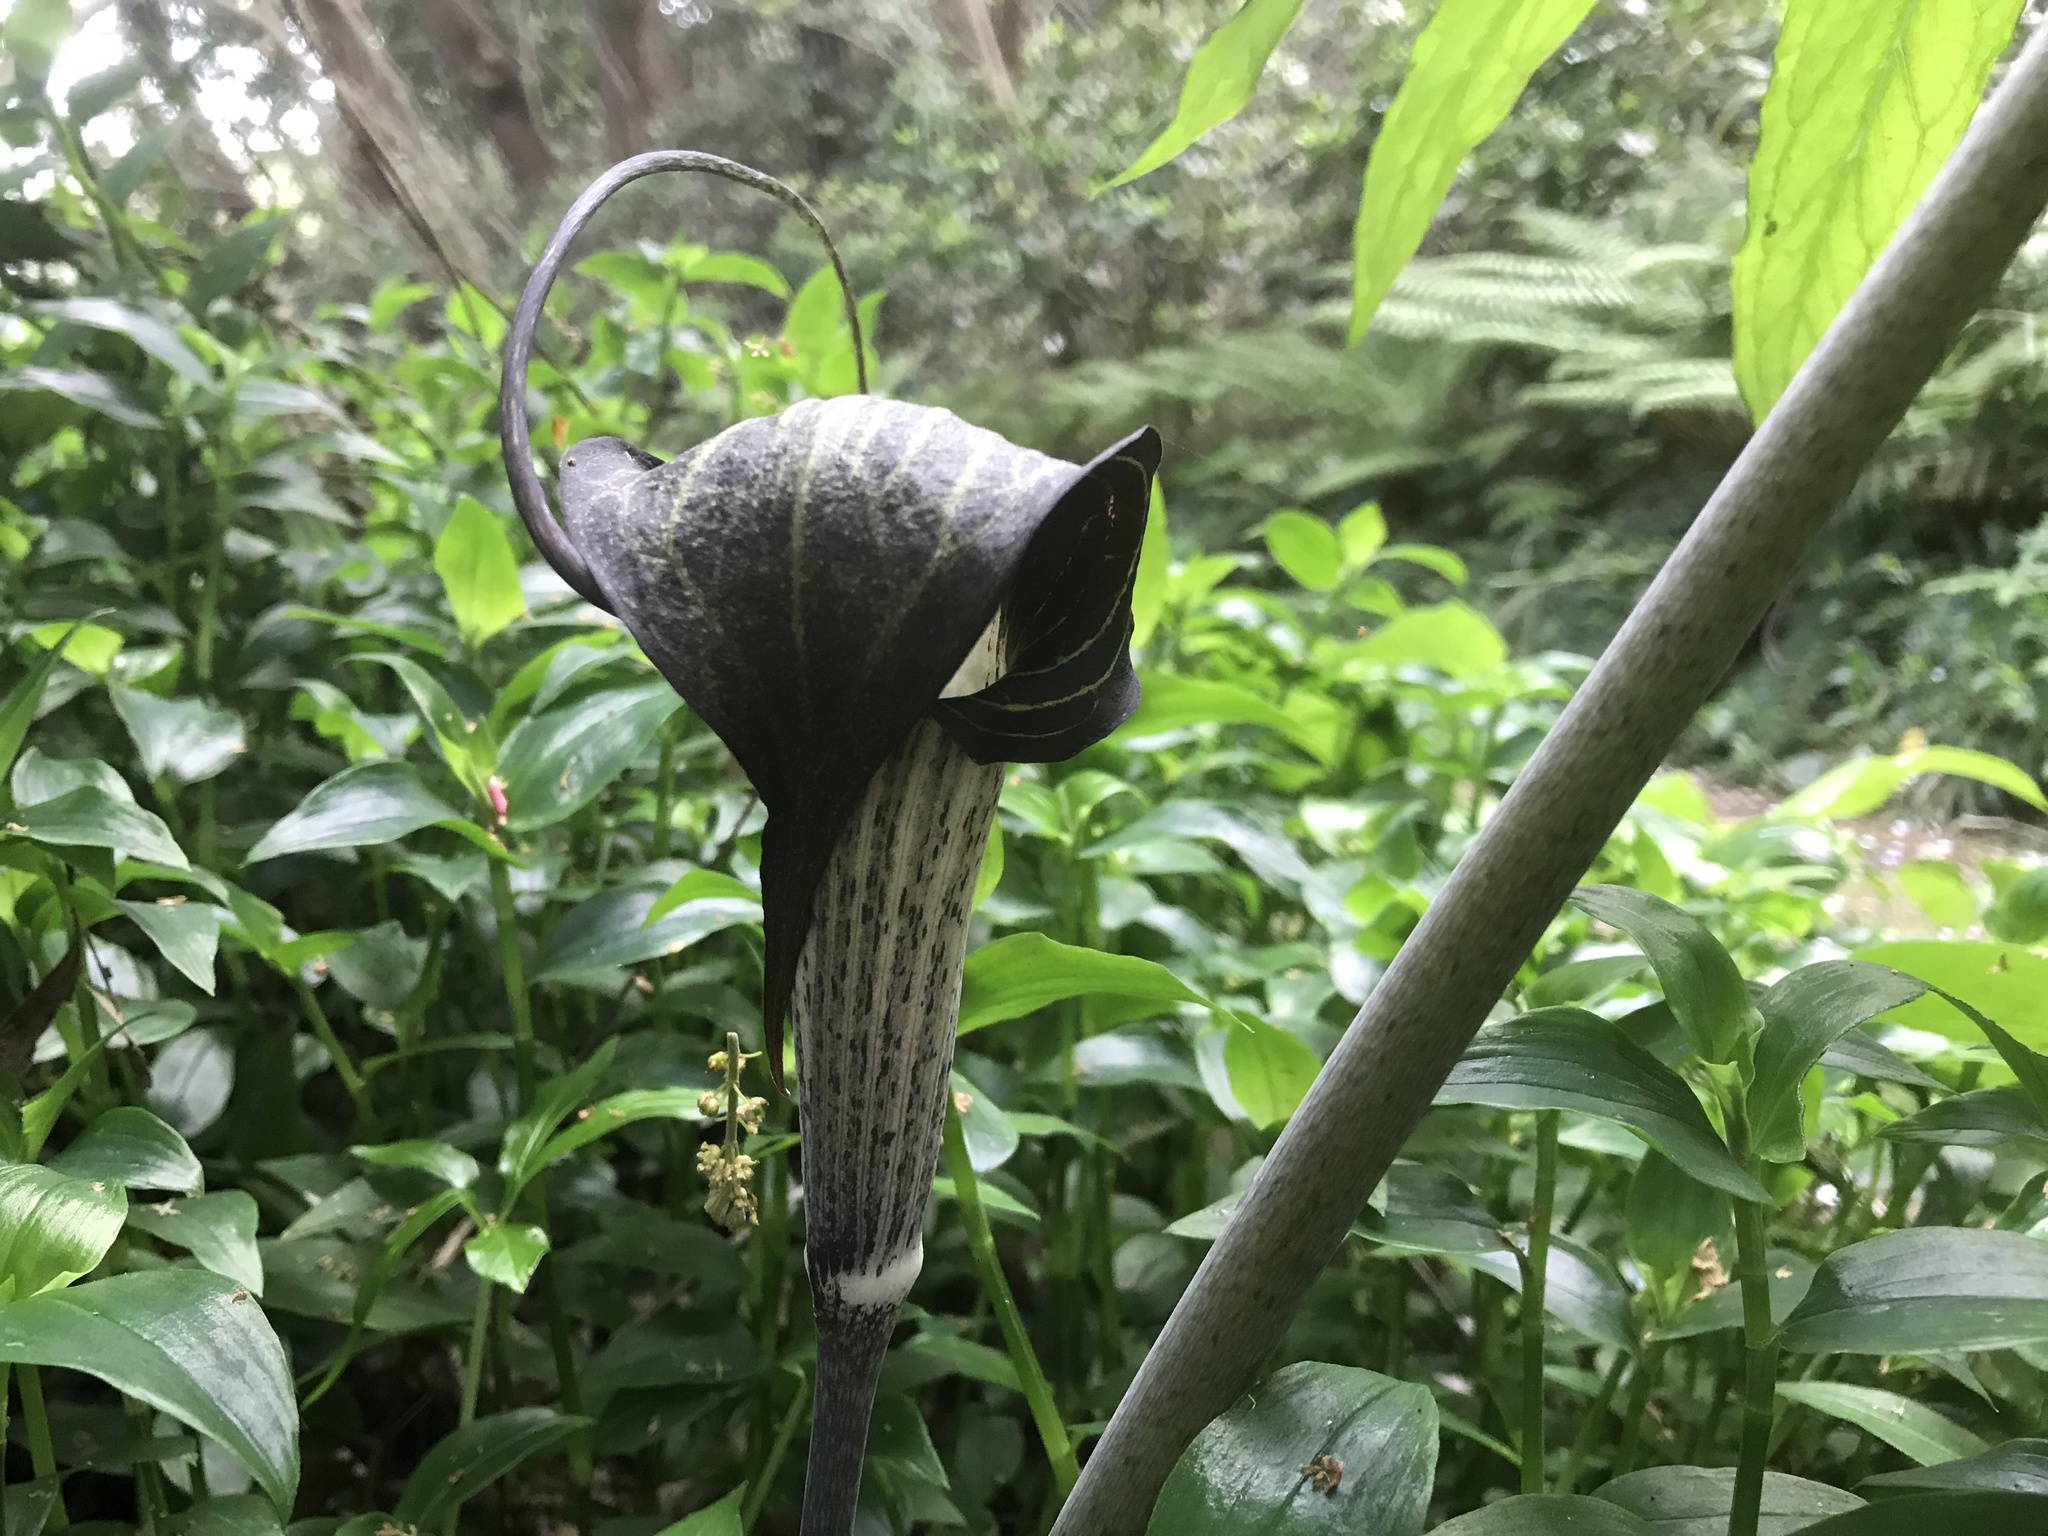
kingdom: Plantae
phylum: Tracheophyta
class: Liliopsida
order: Alismatales
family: Araceae
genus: Arisaema
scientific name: Arisaema thunbergii
